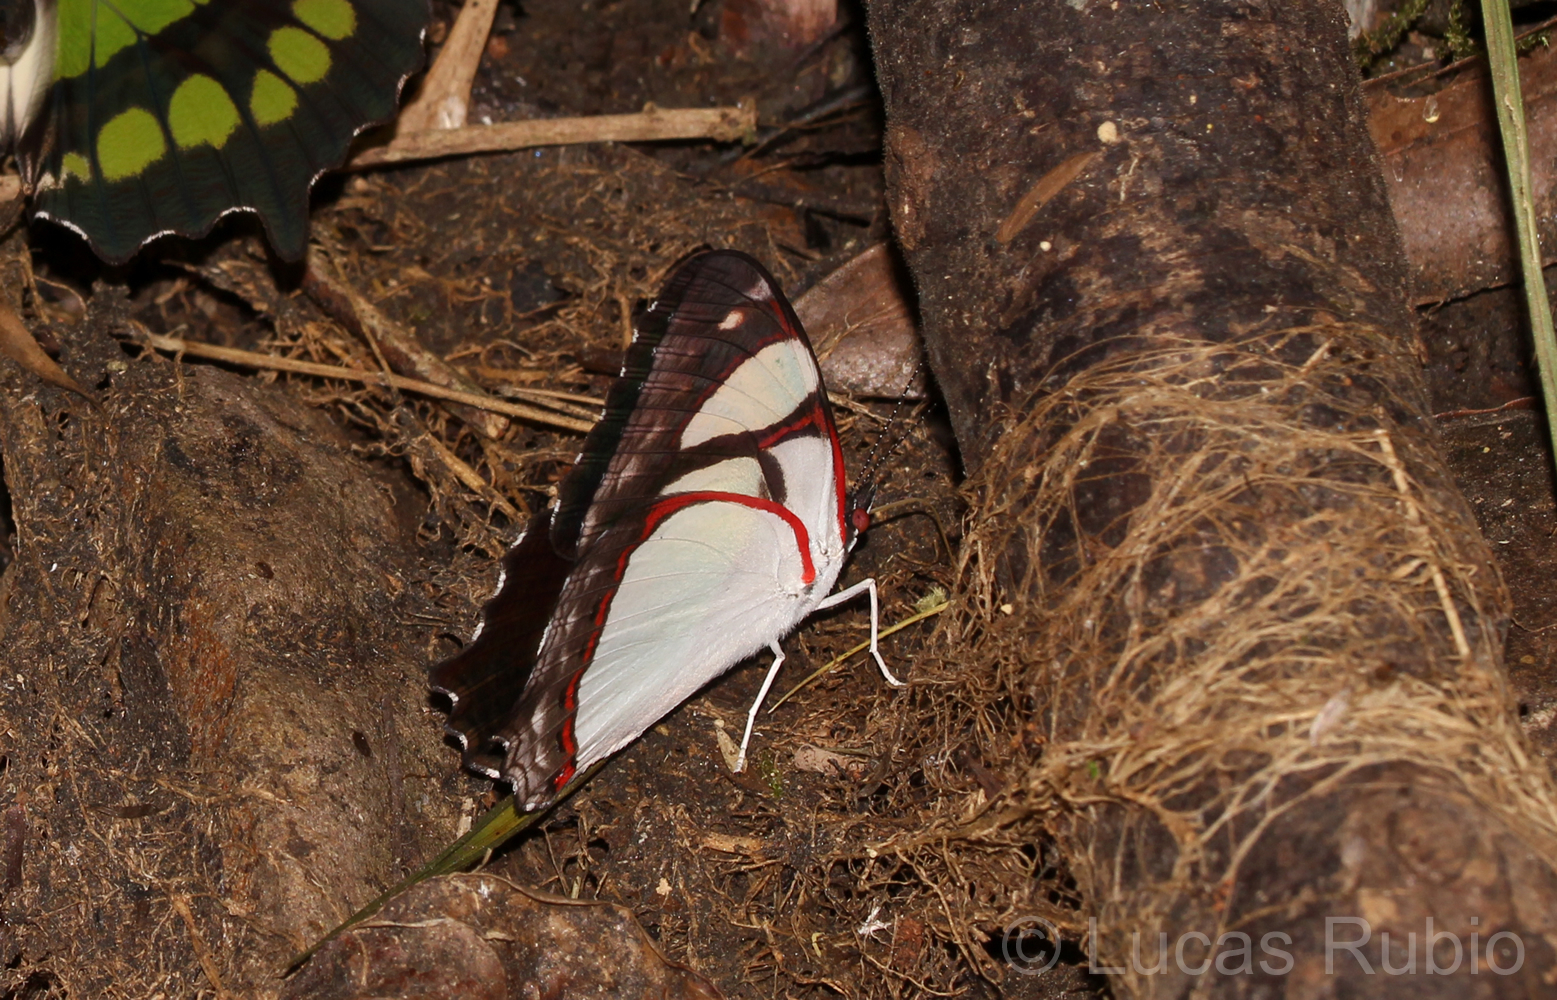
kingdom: Animalia
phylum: Arthropoda
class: Insecta
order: Lepidoptera
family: Nymphalidae
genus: Pyrrhogyra
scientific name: Pyrrhogyra neaerea
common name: Leading red-ring
